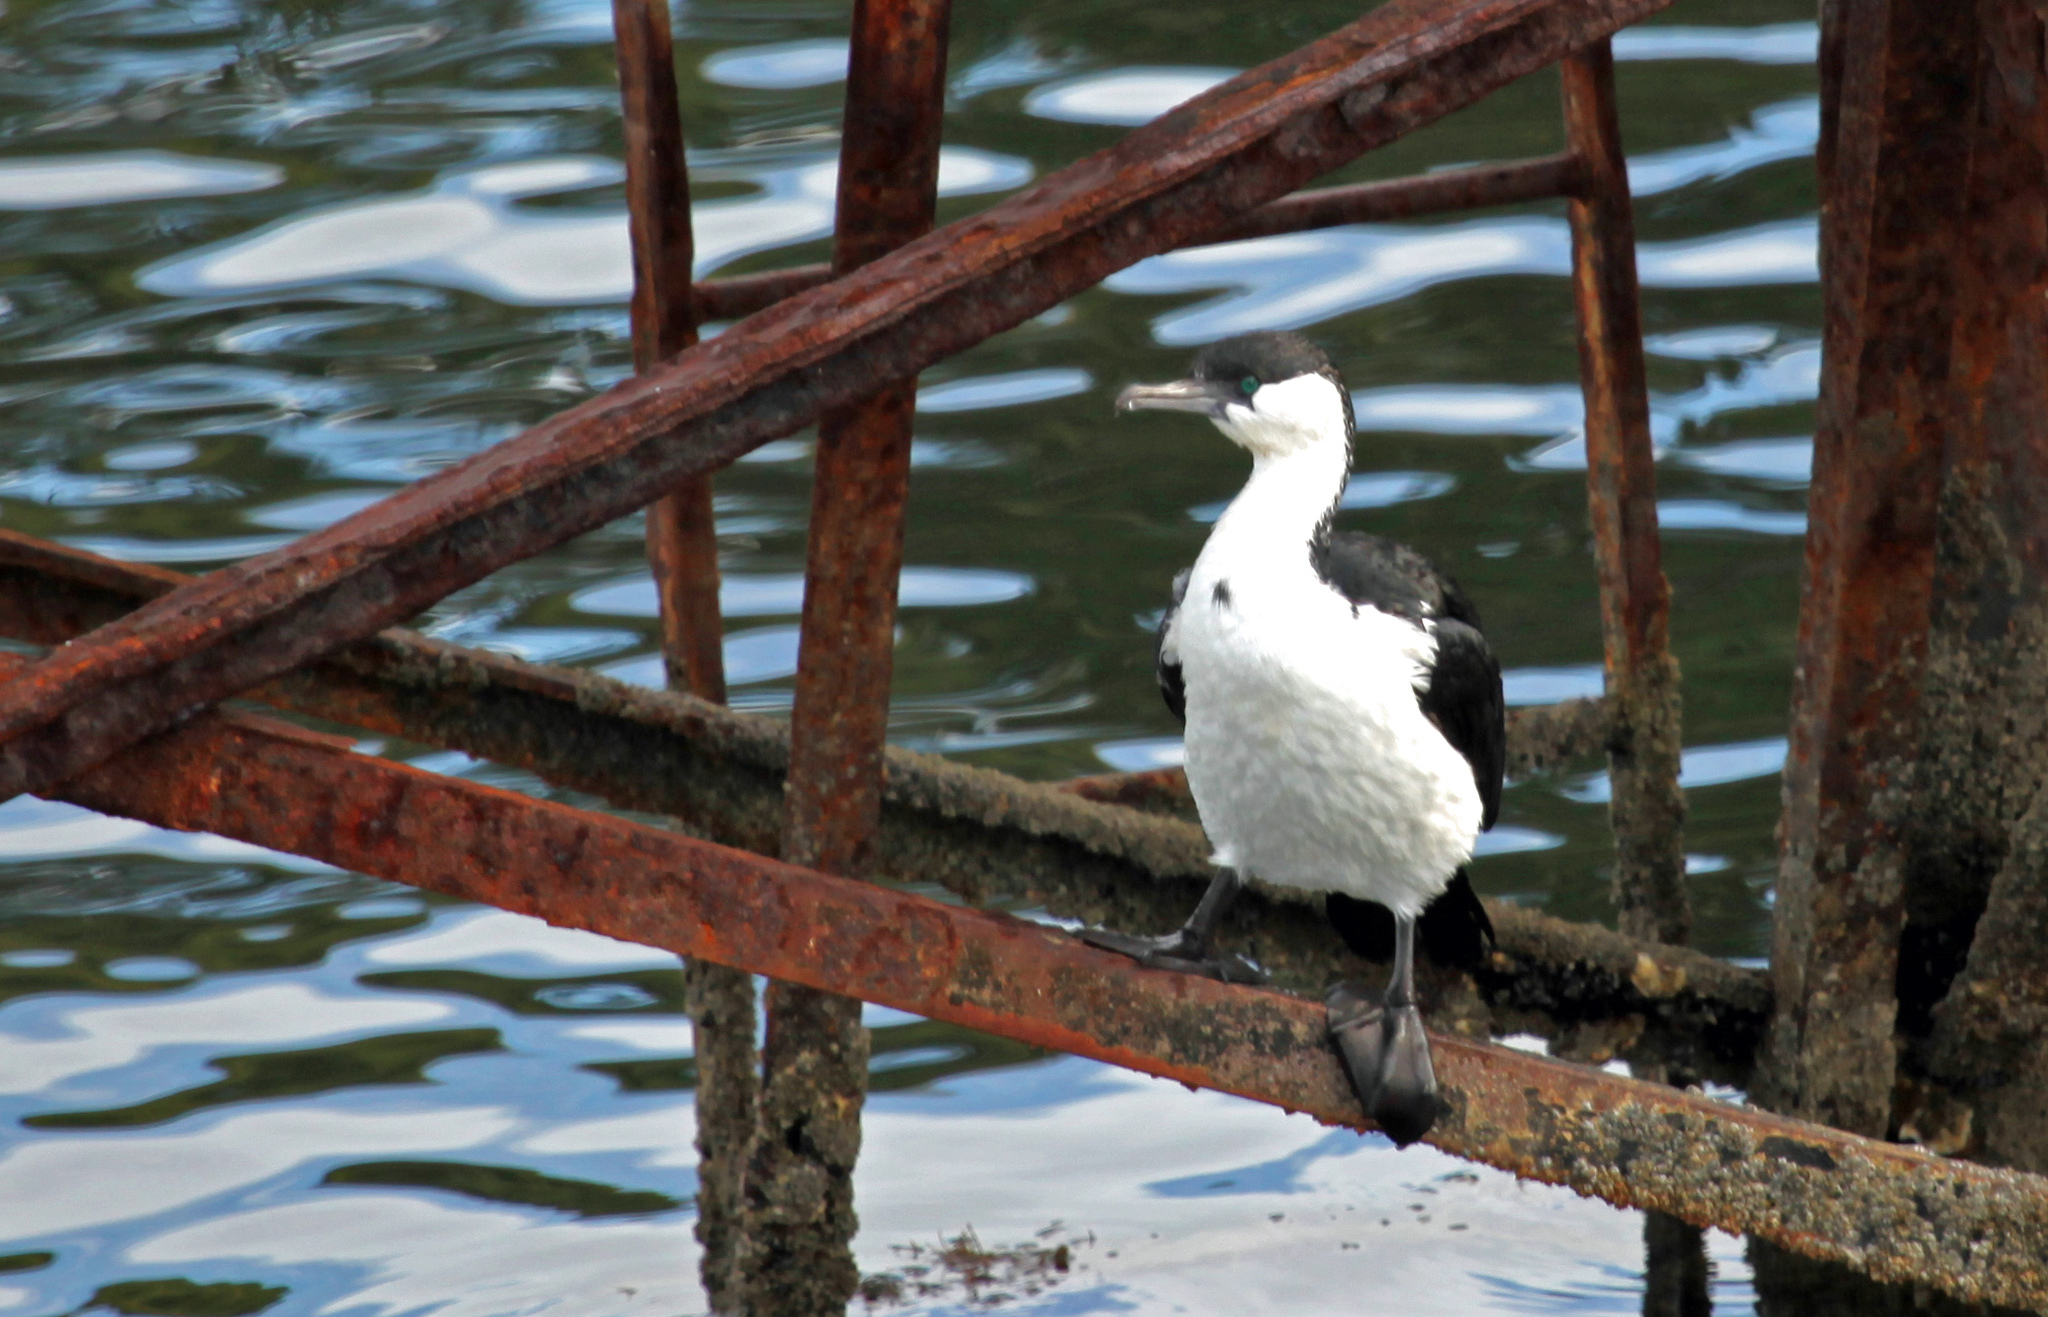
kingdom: Animalia
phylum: Chordata
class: Aves
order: Suliformes
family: Phalacrocoracidae
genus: Phalacrocorax
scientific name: Phalacrocorax fuscescens
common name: Black-faced cormorant
